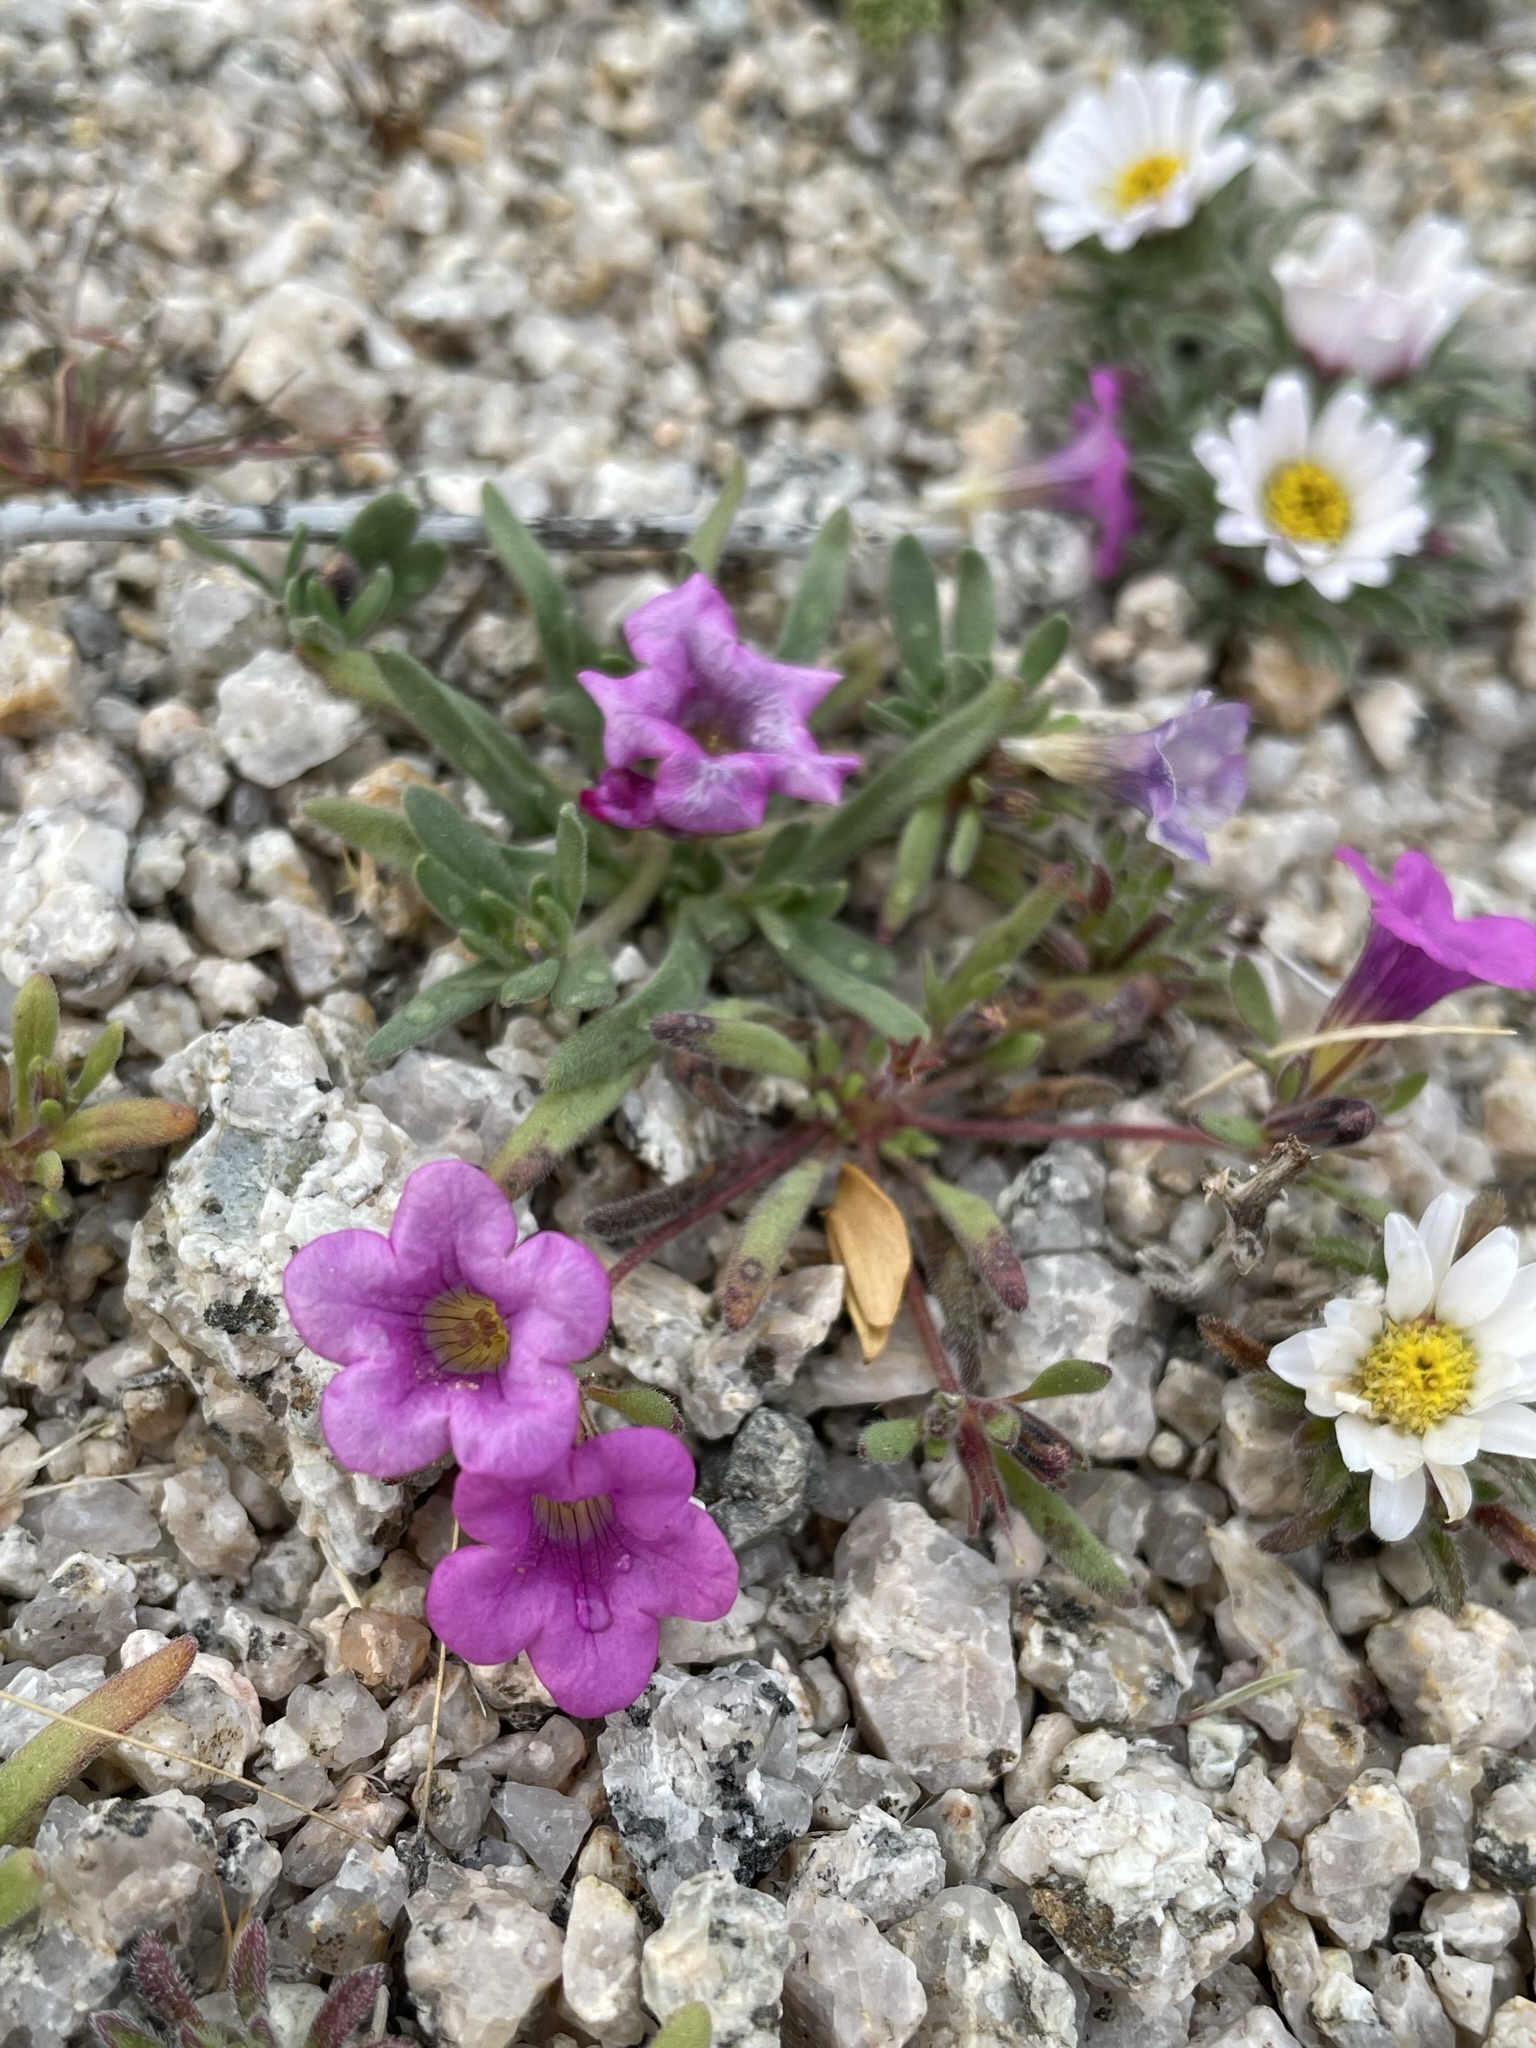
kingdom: Plantae
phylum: Tracheophyta
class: Magnoliopsida
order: Boraginales
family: Namaceae
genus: Nama
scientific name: Nama demissa
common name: Leafy nama
